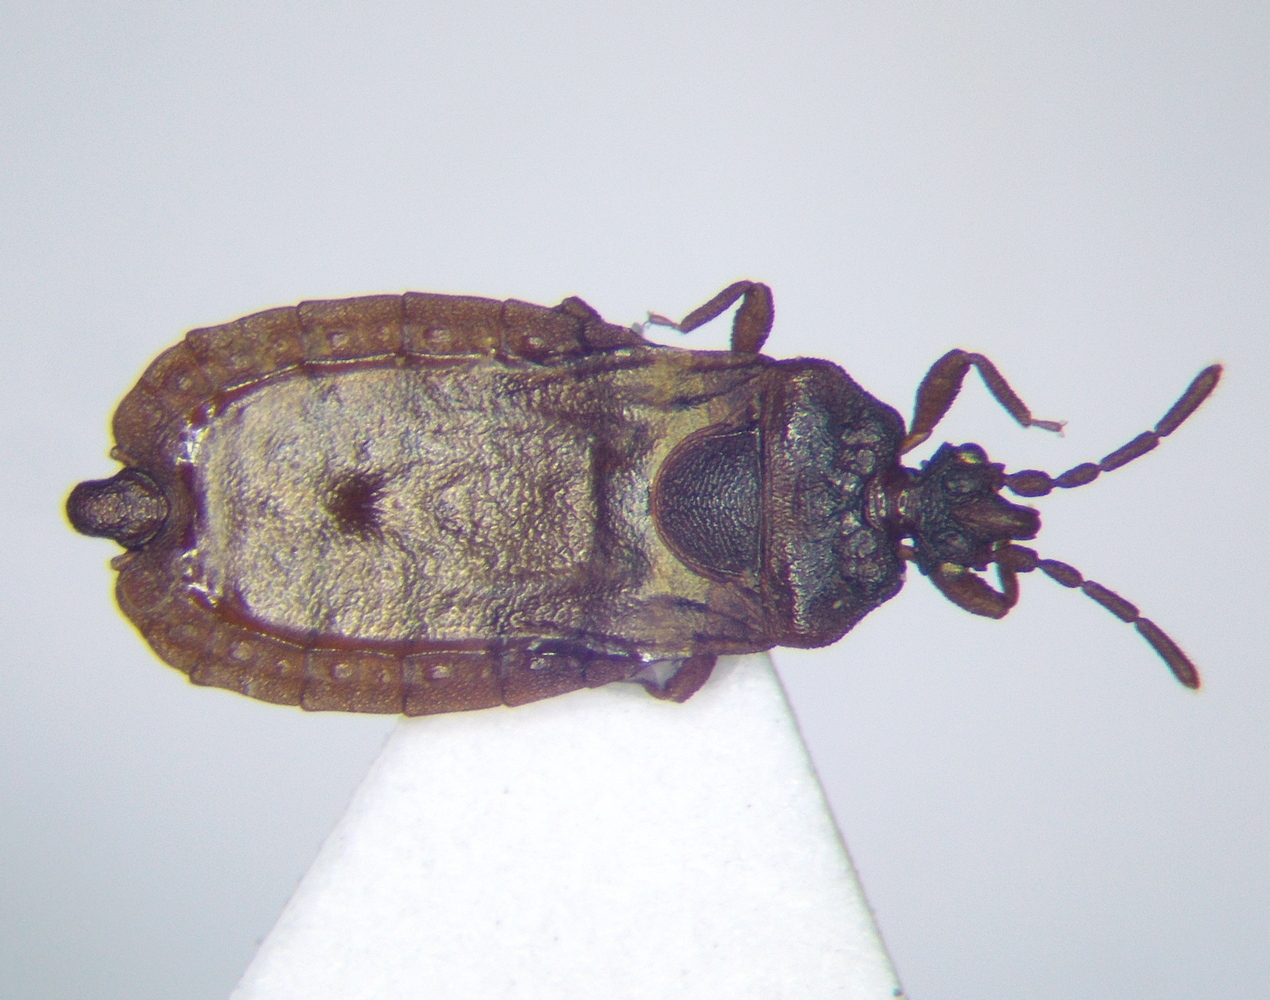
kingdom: Animalia
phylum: Arthropoda
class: Insecta
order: Hemiptera
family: Aradidae
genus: Aneurus
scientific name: Aneurus laevis
